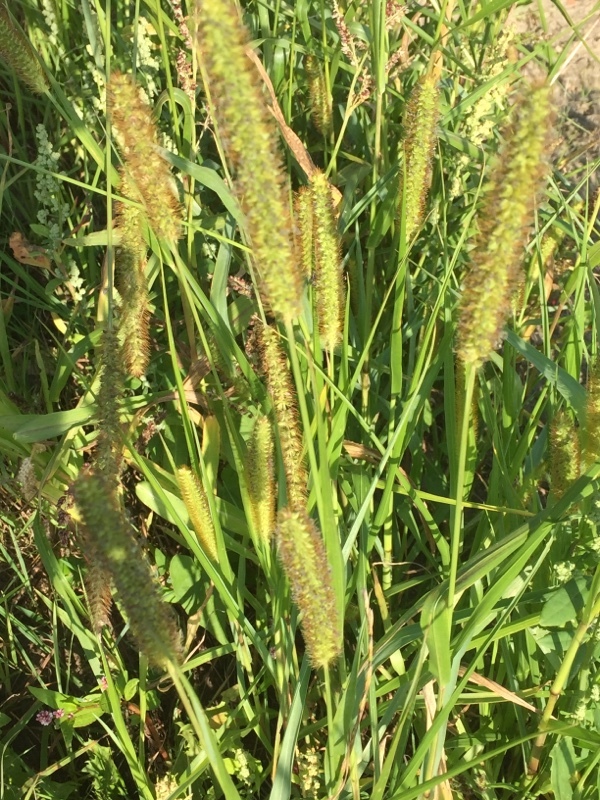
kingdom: Plantae
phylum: Tracheophyta
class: Liliopsida
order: Poales
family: Poaceae
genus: Setaria
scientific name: Setaria pumila
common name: Yellow bristle-grass
